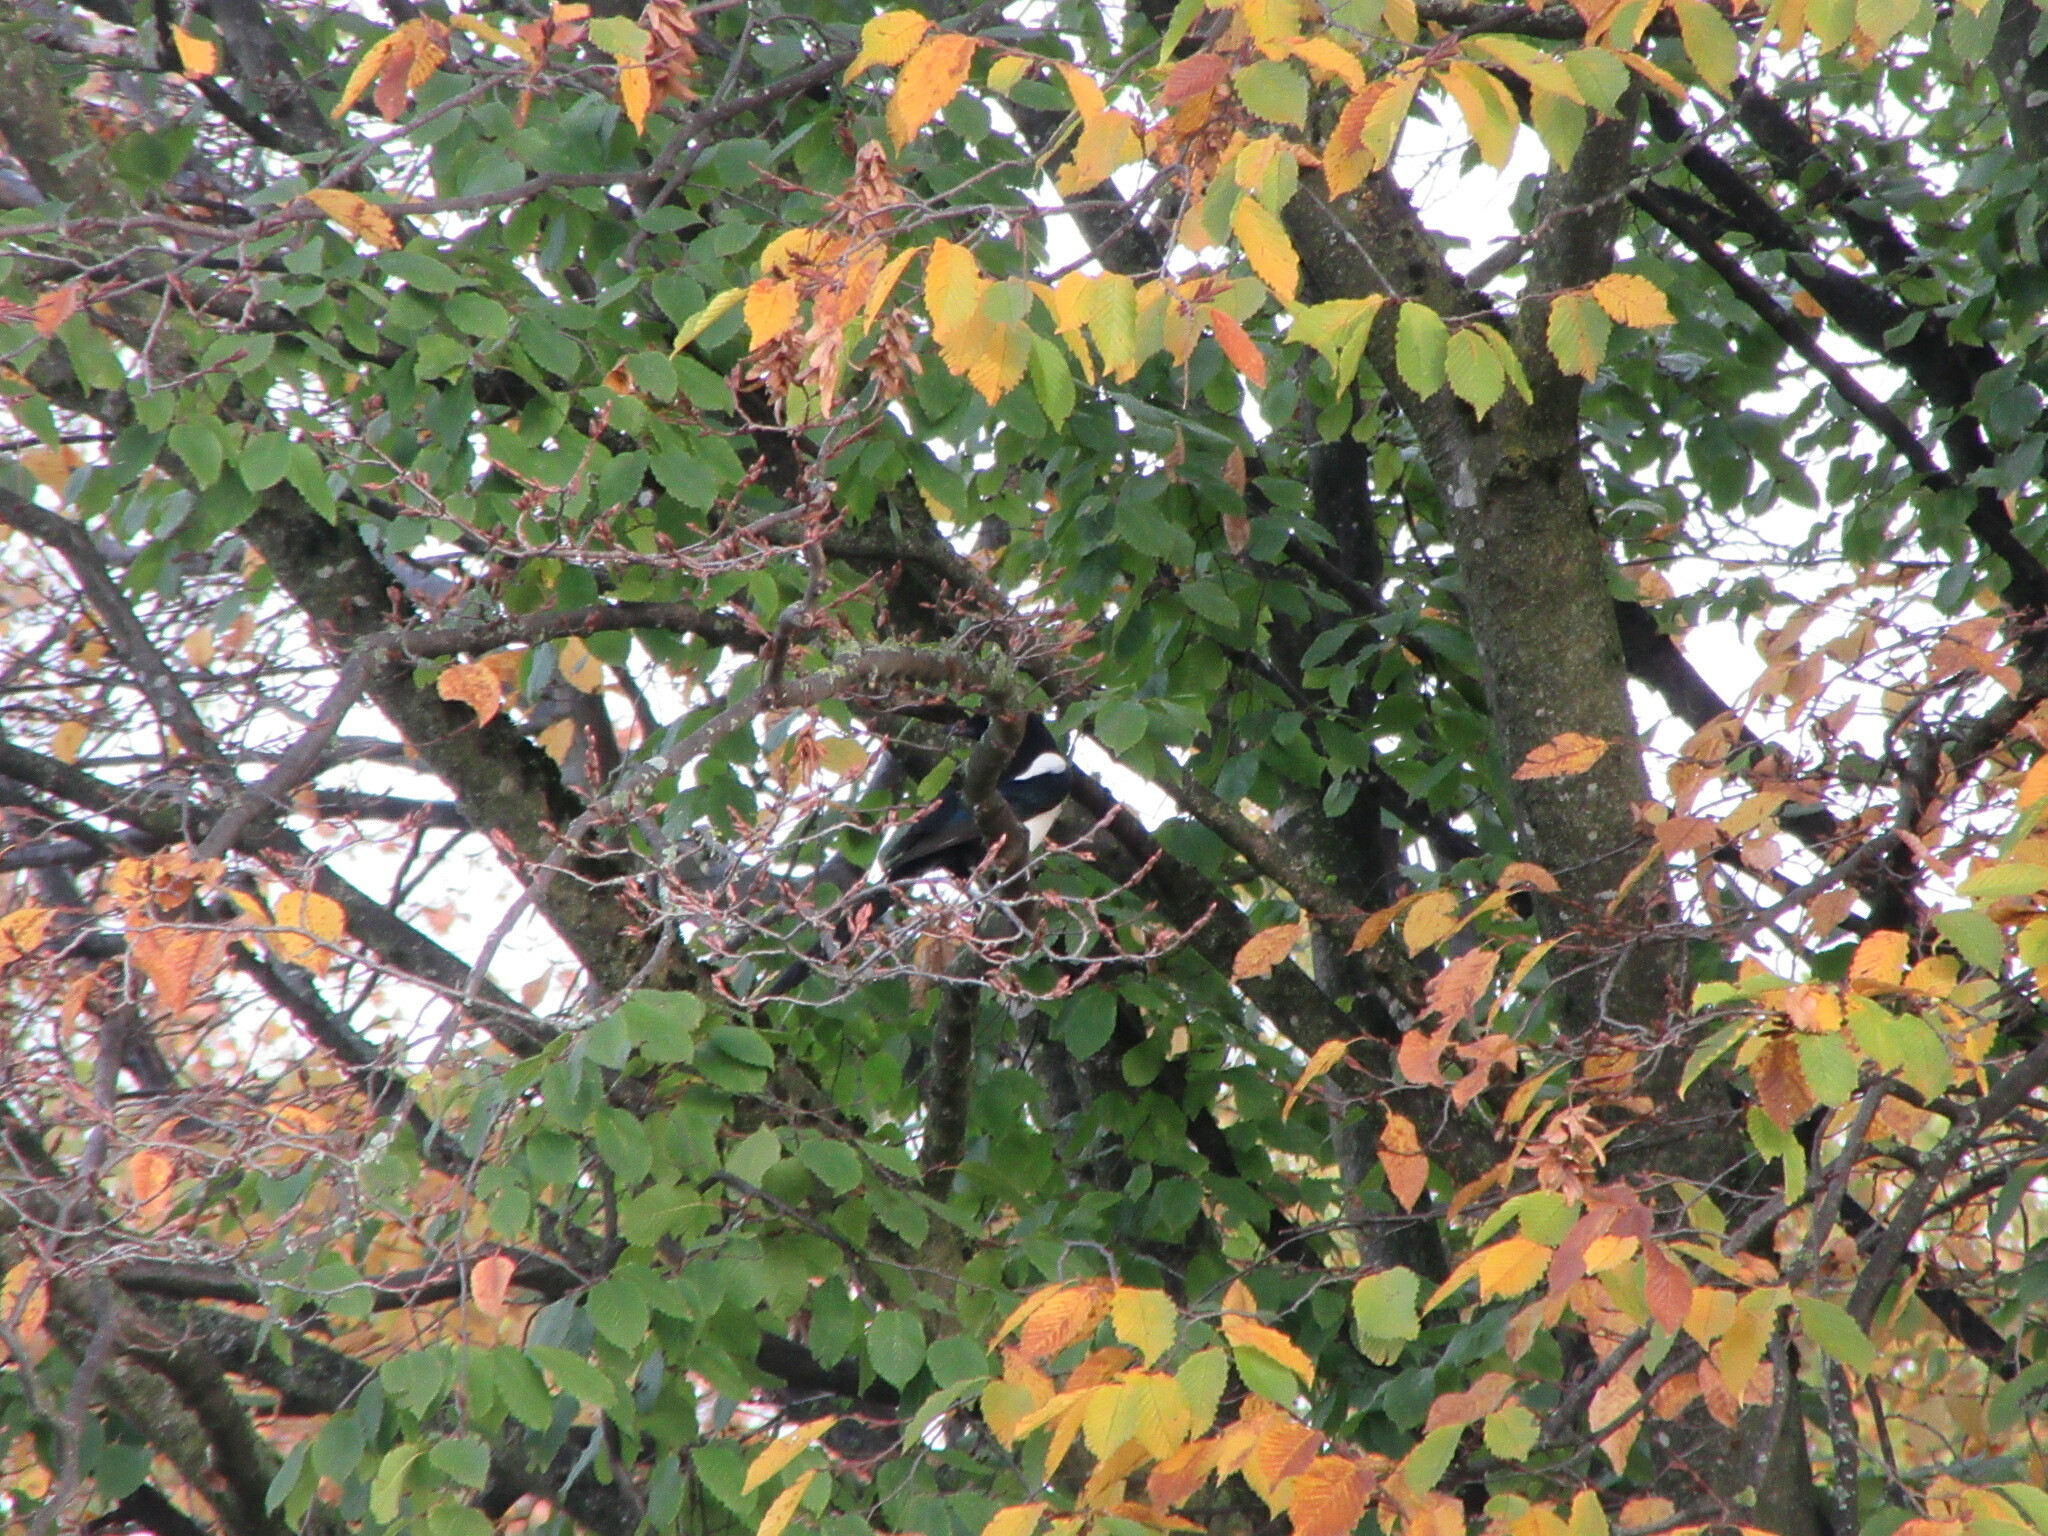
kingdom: Animalia
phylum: Chordata
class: Aves
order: Passeriformes
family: Corvidae
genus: Pica
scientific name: Pica pica
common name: Eurasian magpie
